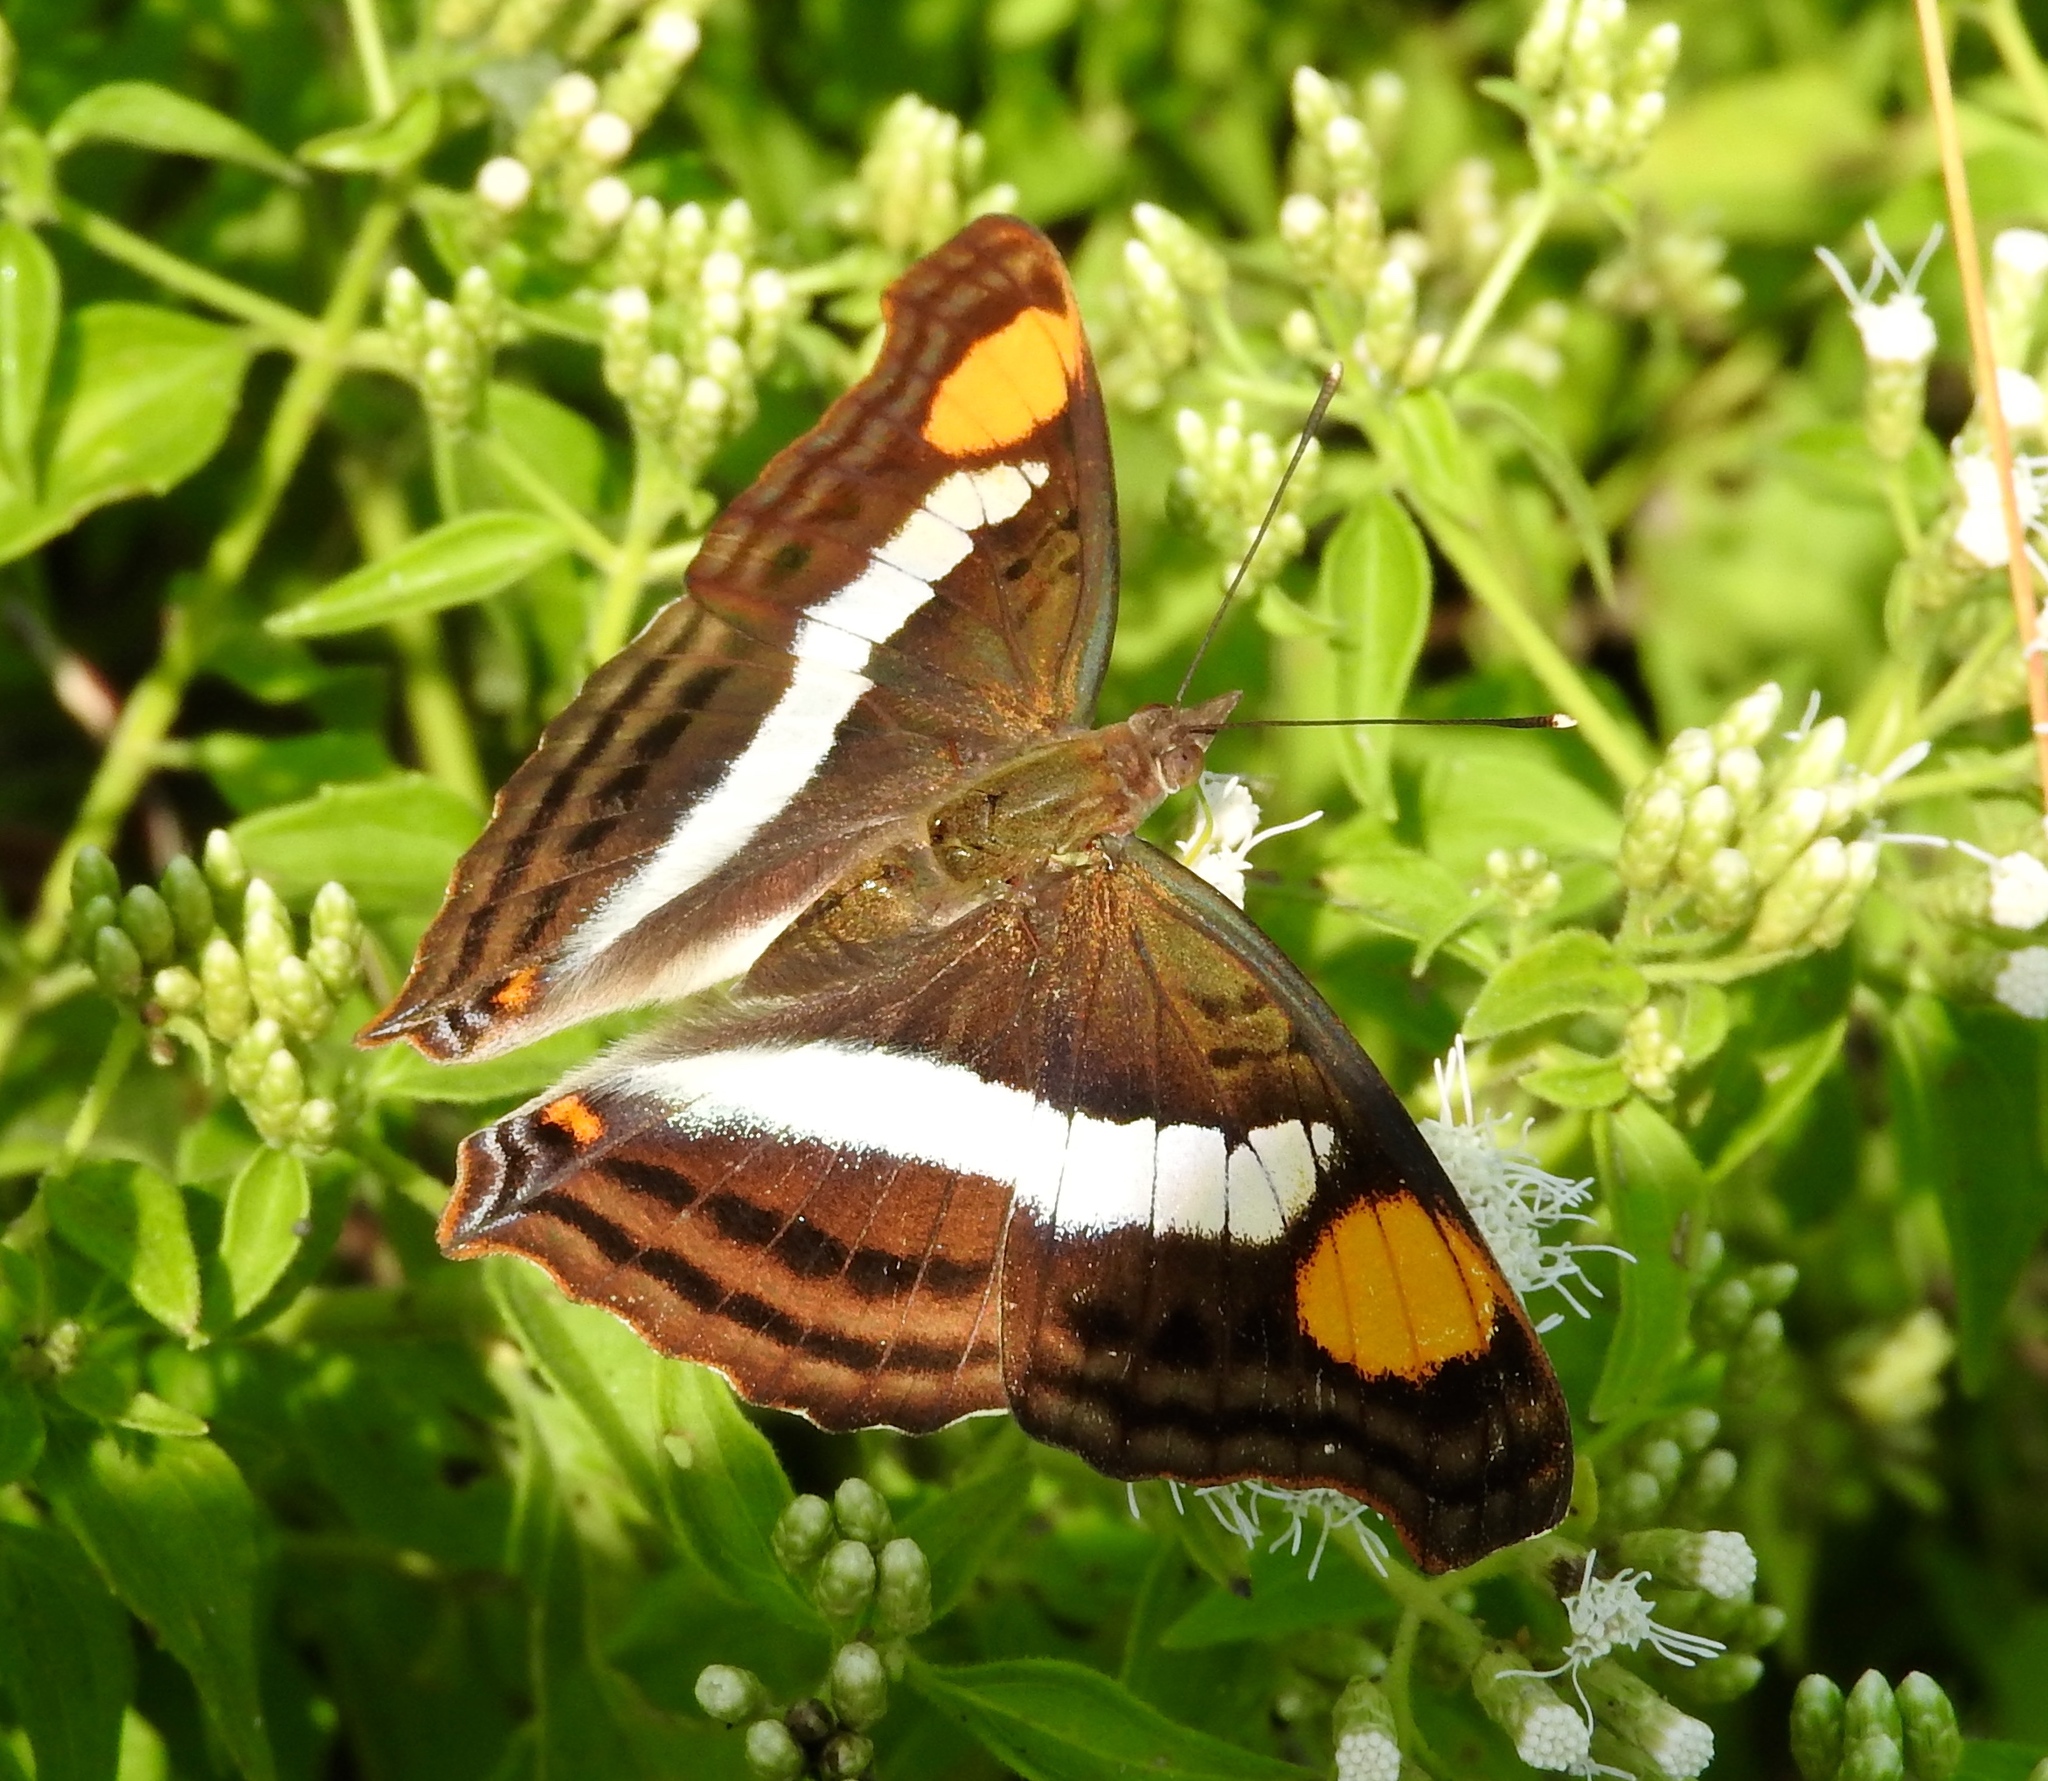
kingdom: Animalia
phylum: Arthropoda
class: Insecta
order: Lepidoptera
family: Nymphalidae
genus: Doxocopa
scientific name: Doxocopa laure
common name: Silver emperor
